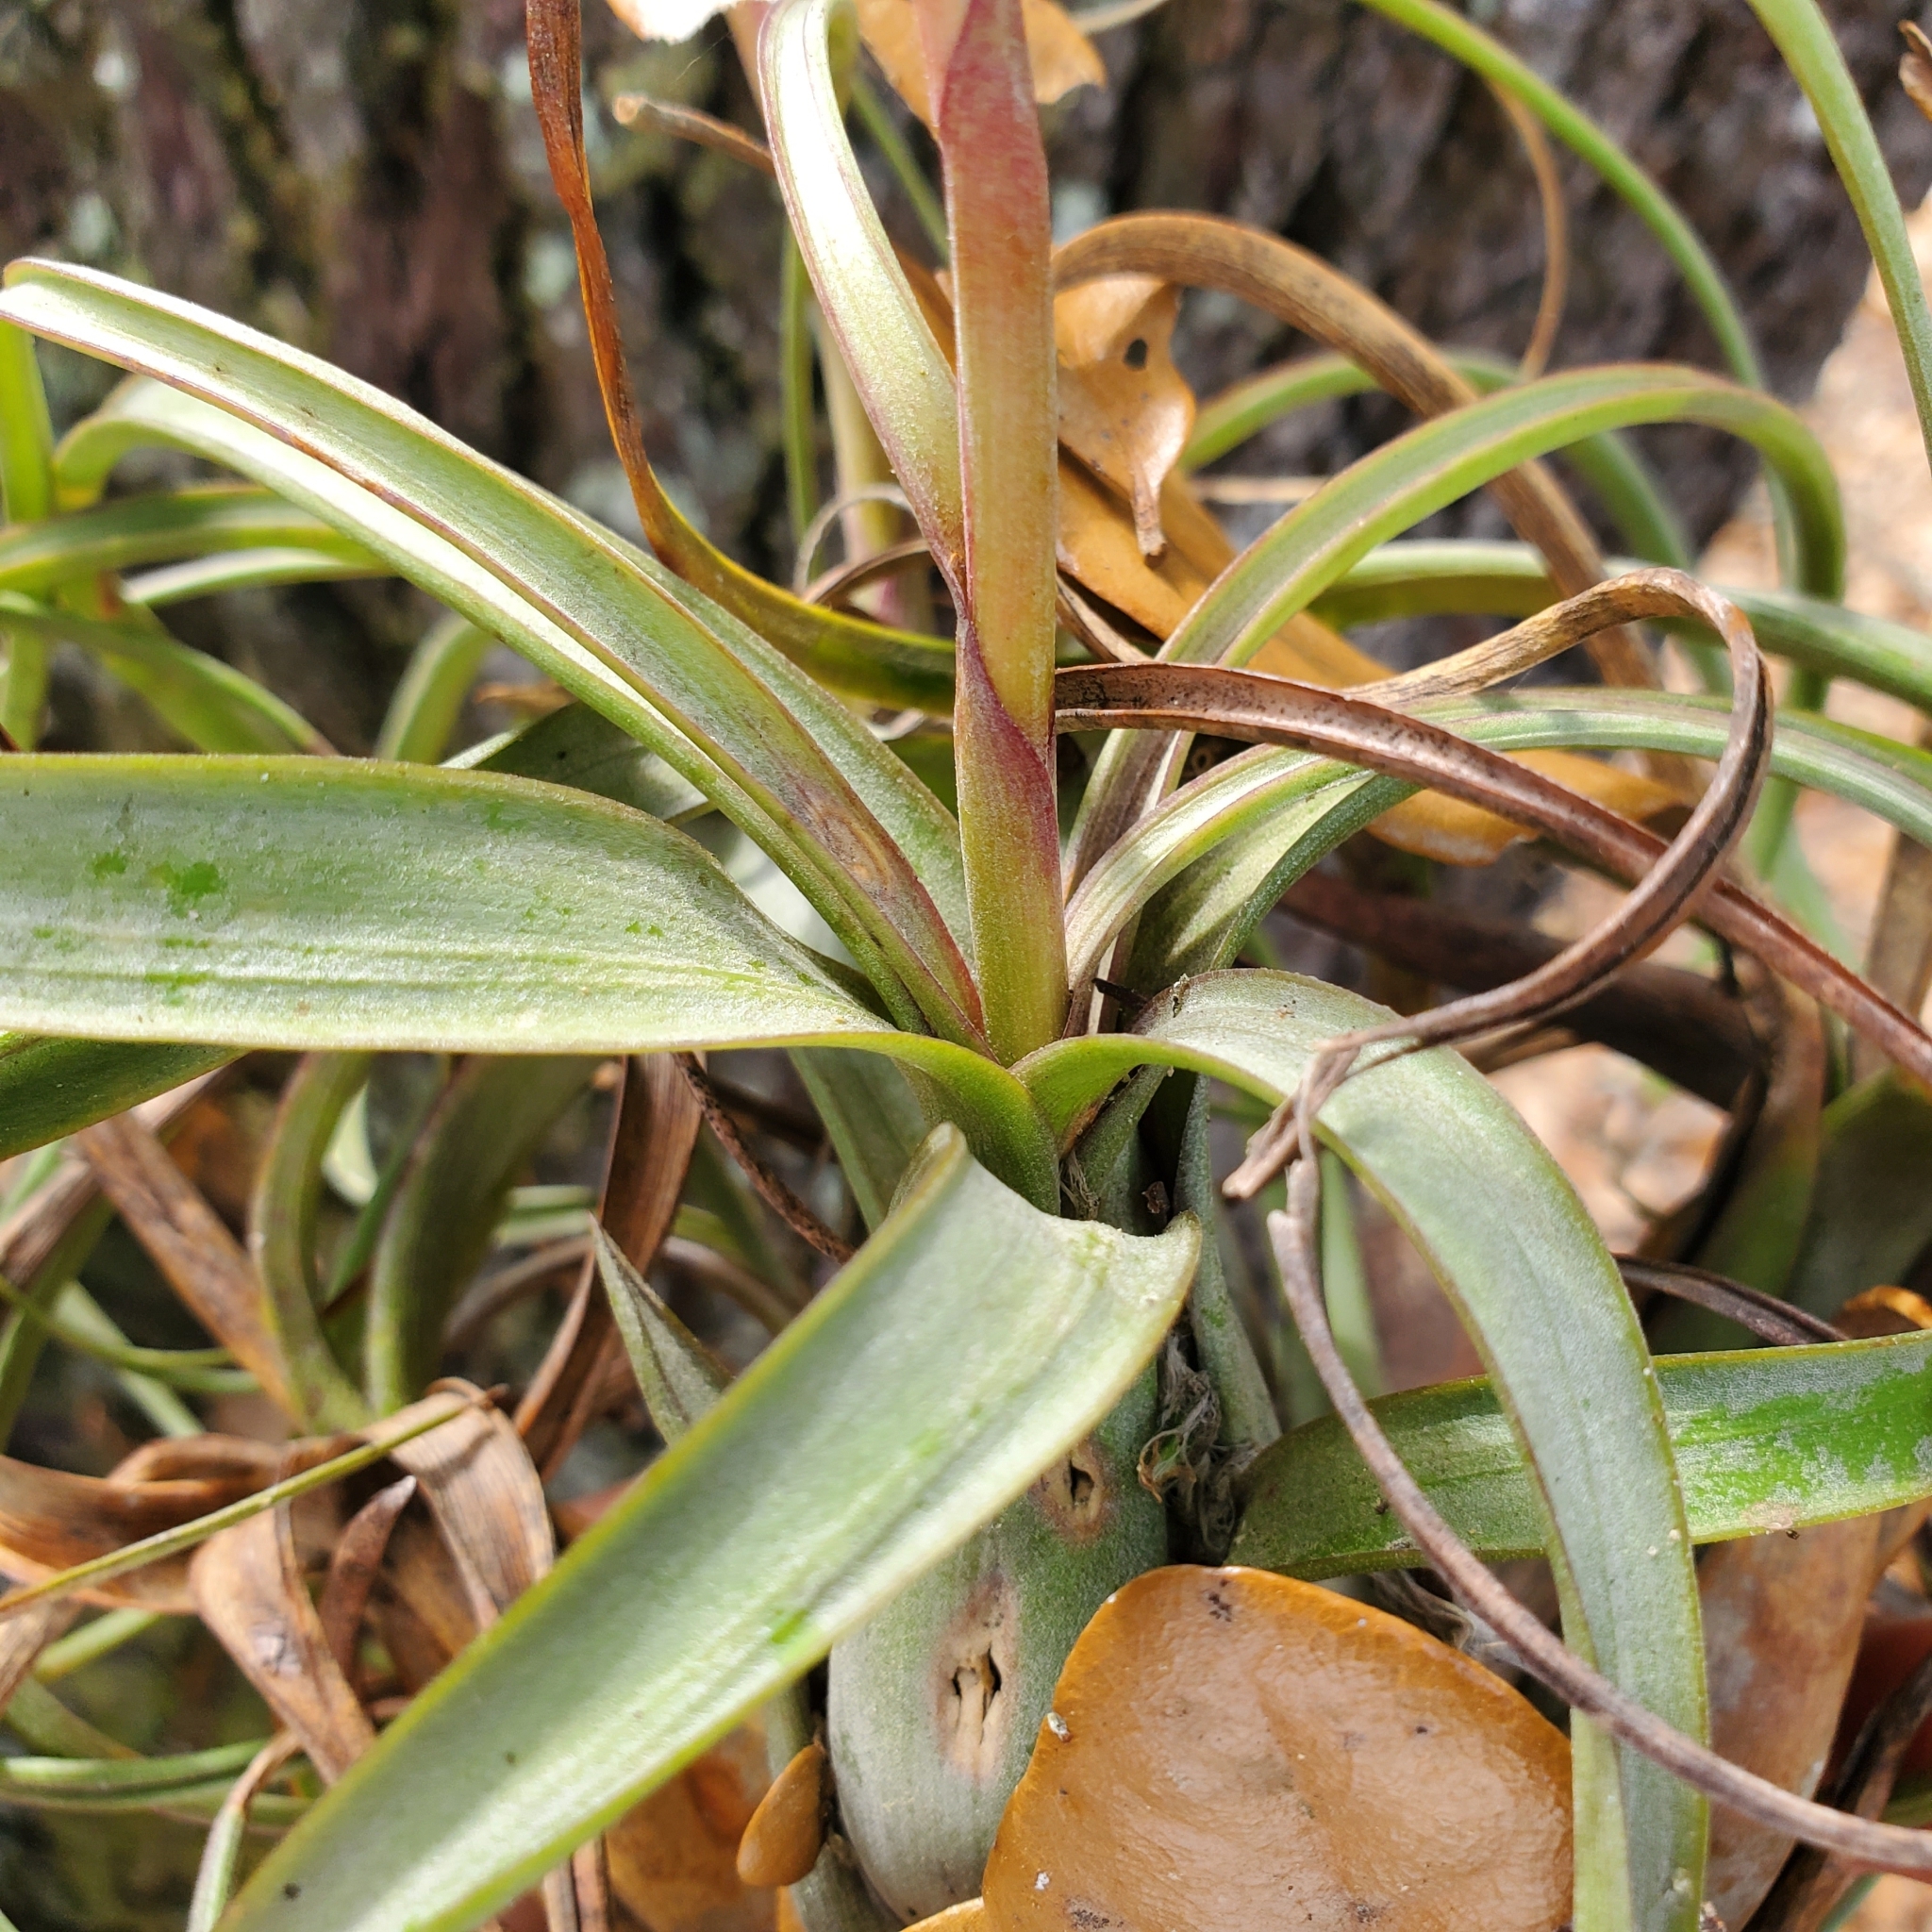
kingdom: Plantae
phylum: Tracheophyta
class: Liliopsida
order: Poales
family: Bromeliaceae
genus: Tillandsia
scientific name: Tillandsia balbisiana
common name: Northern needleleaf
